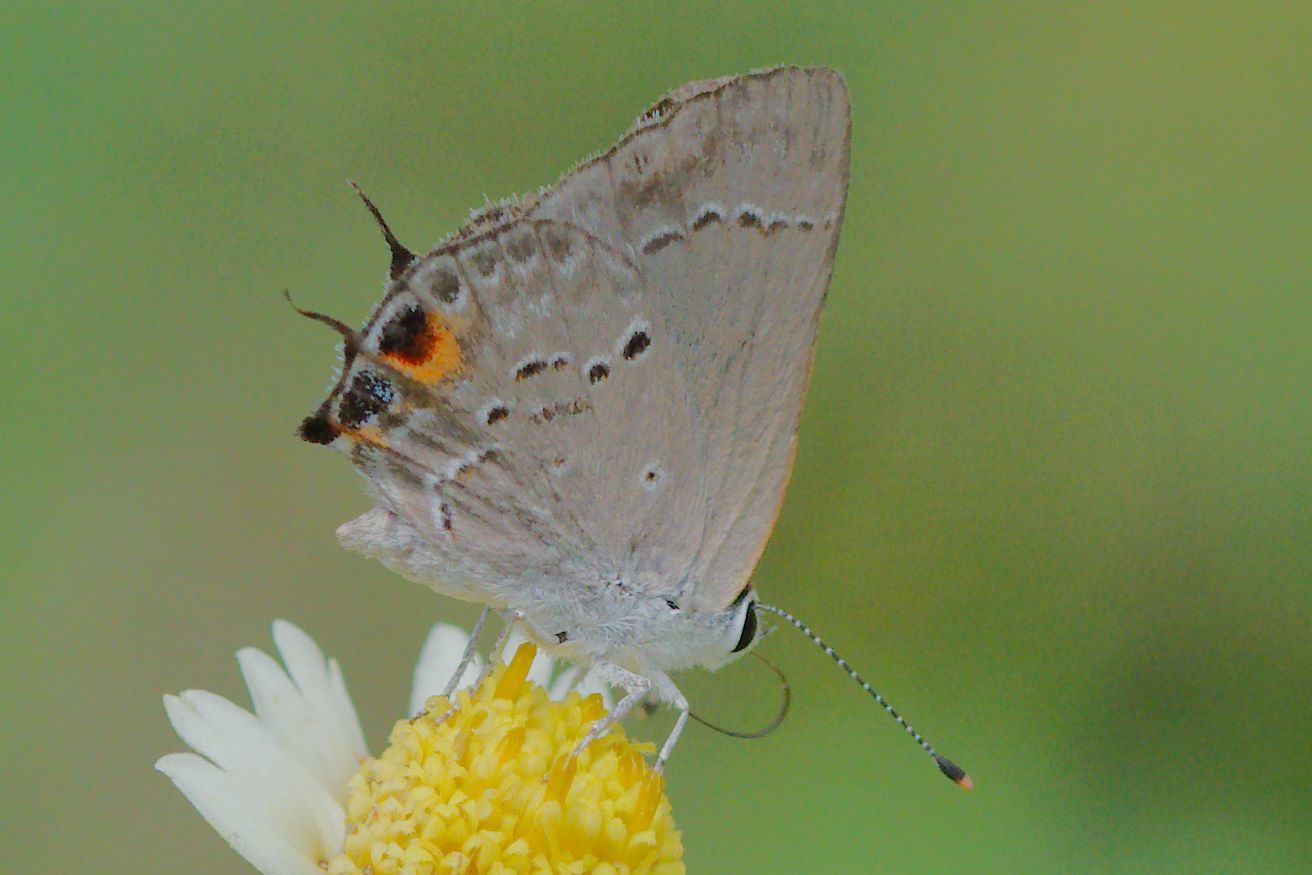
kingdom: Animalia
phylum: Arthropoda
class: Insecta
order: Lepidoptera
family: Lycaenidae
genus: Callicista
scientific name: Callicista columella
